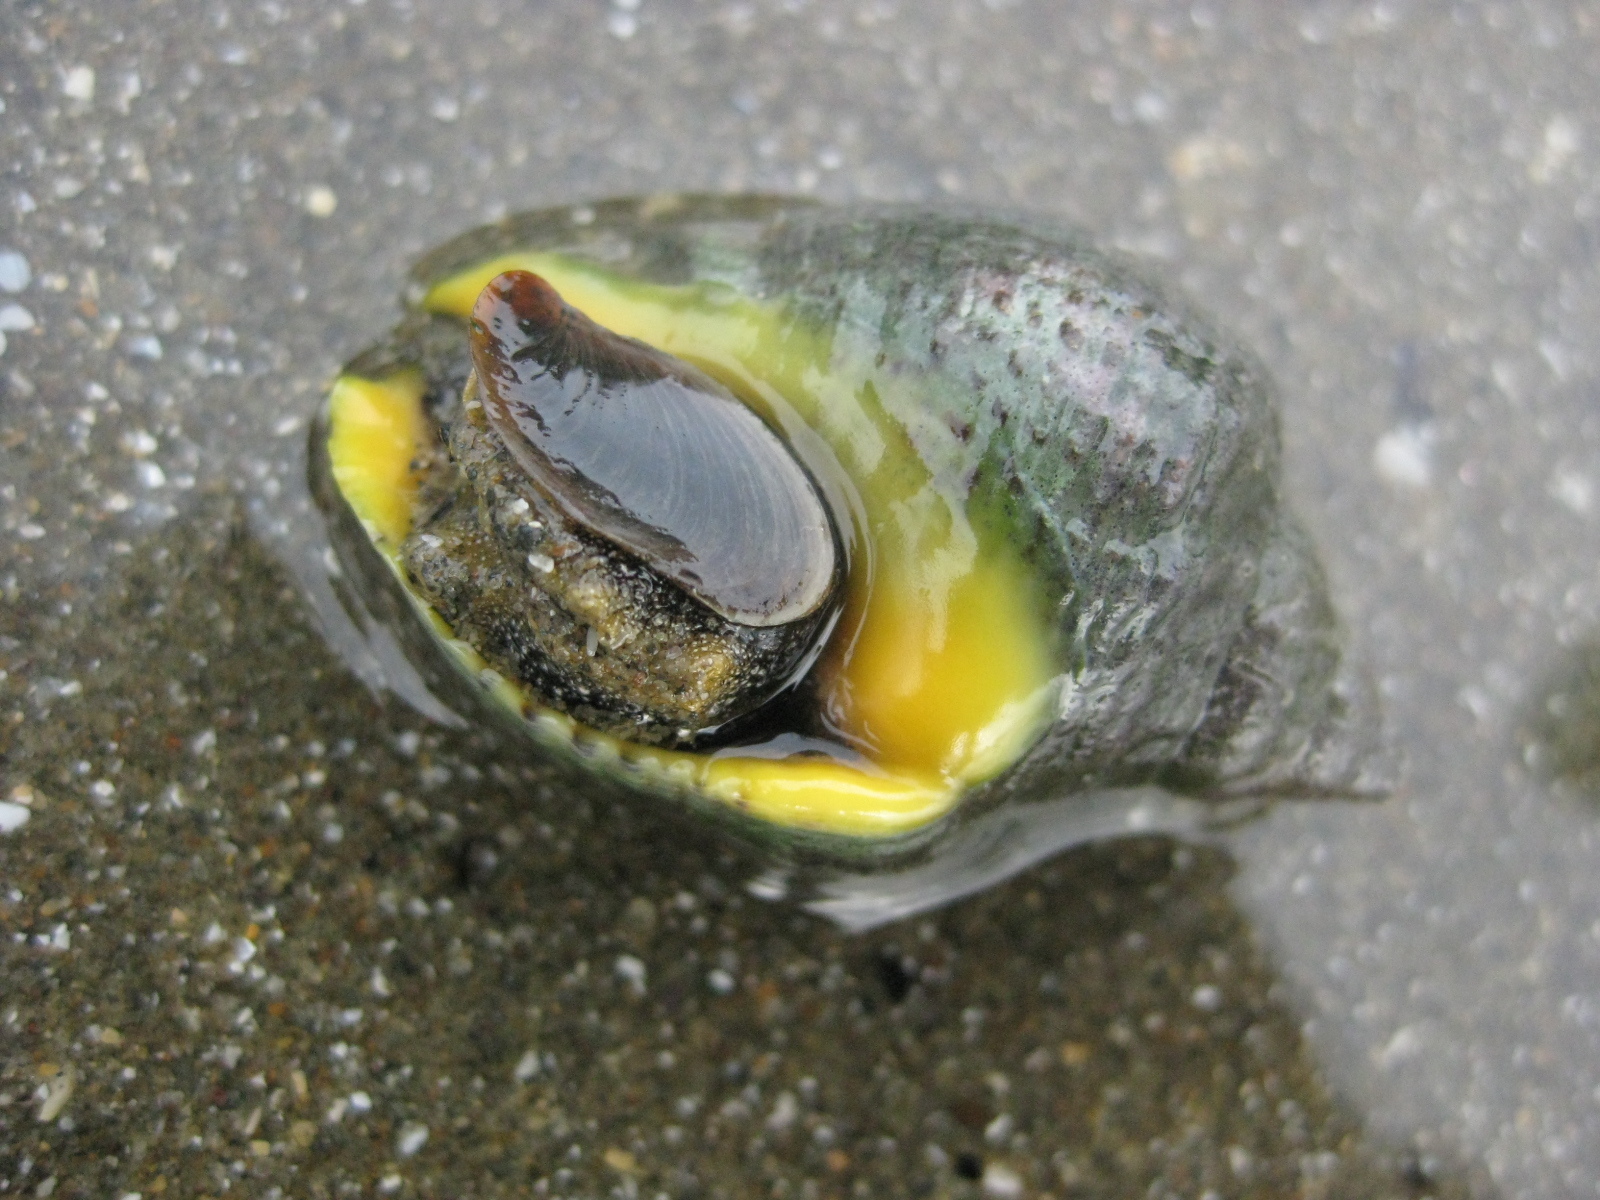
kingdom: Animalia
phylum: Mollusca
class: Gastropoda
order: Neogastropoda
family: Cominellidae
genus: Cominella
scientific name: Cominella adspersa
